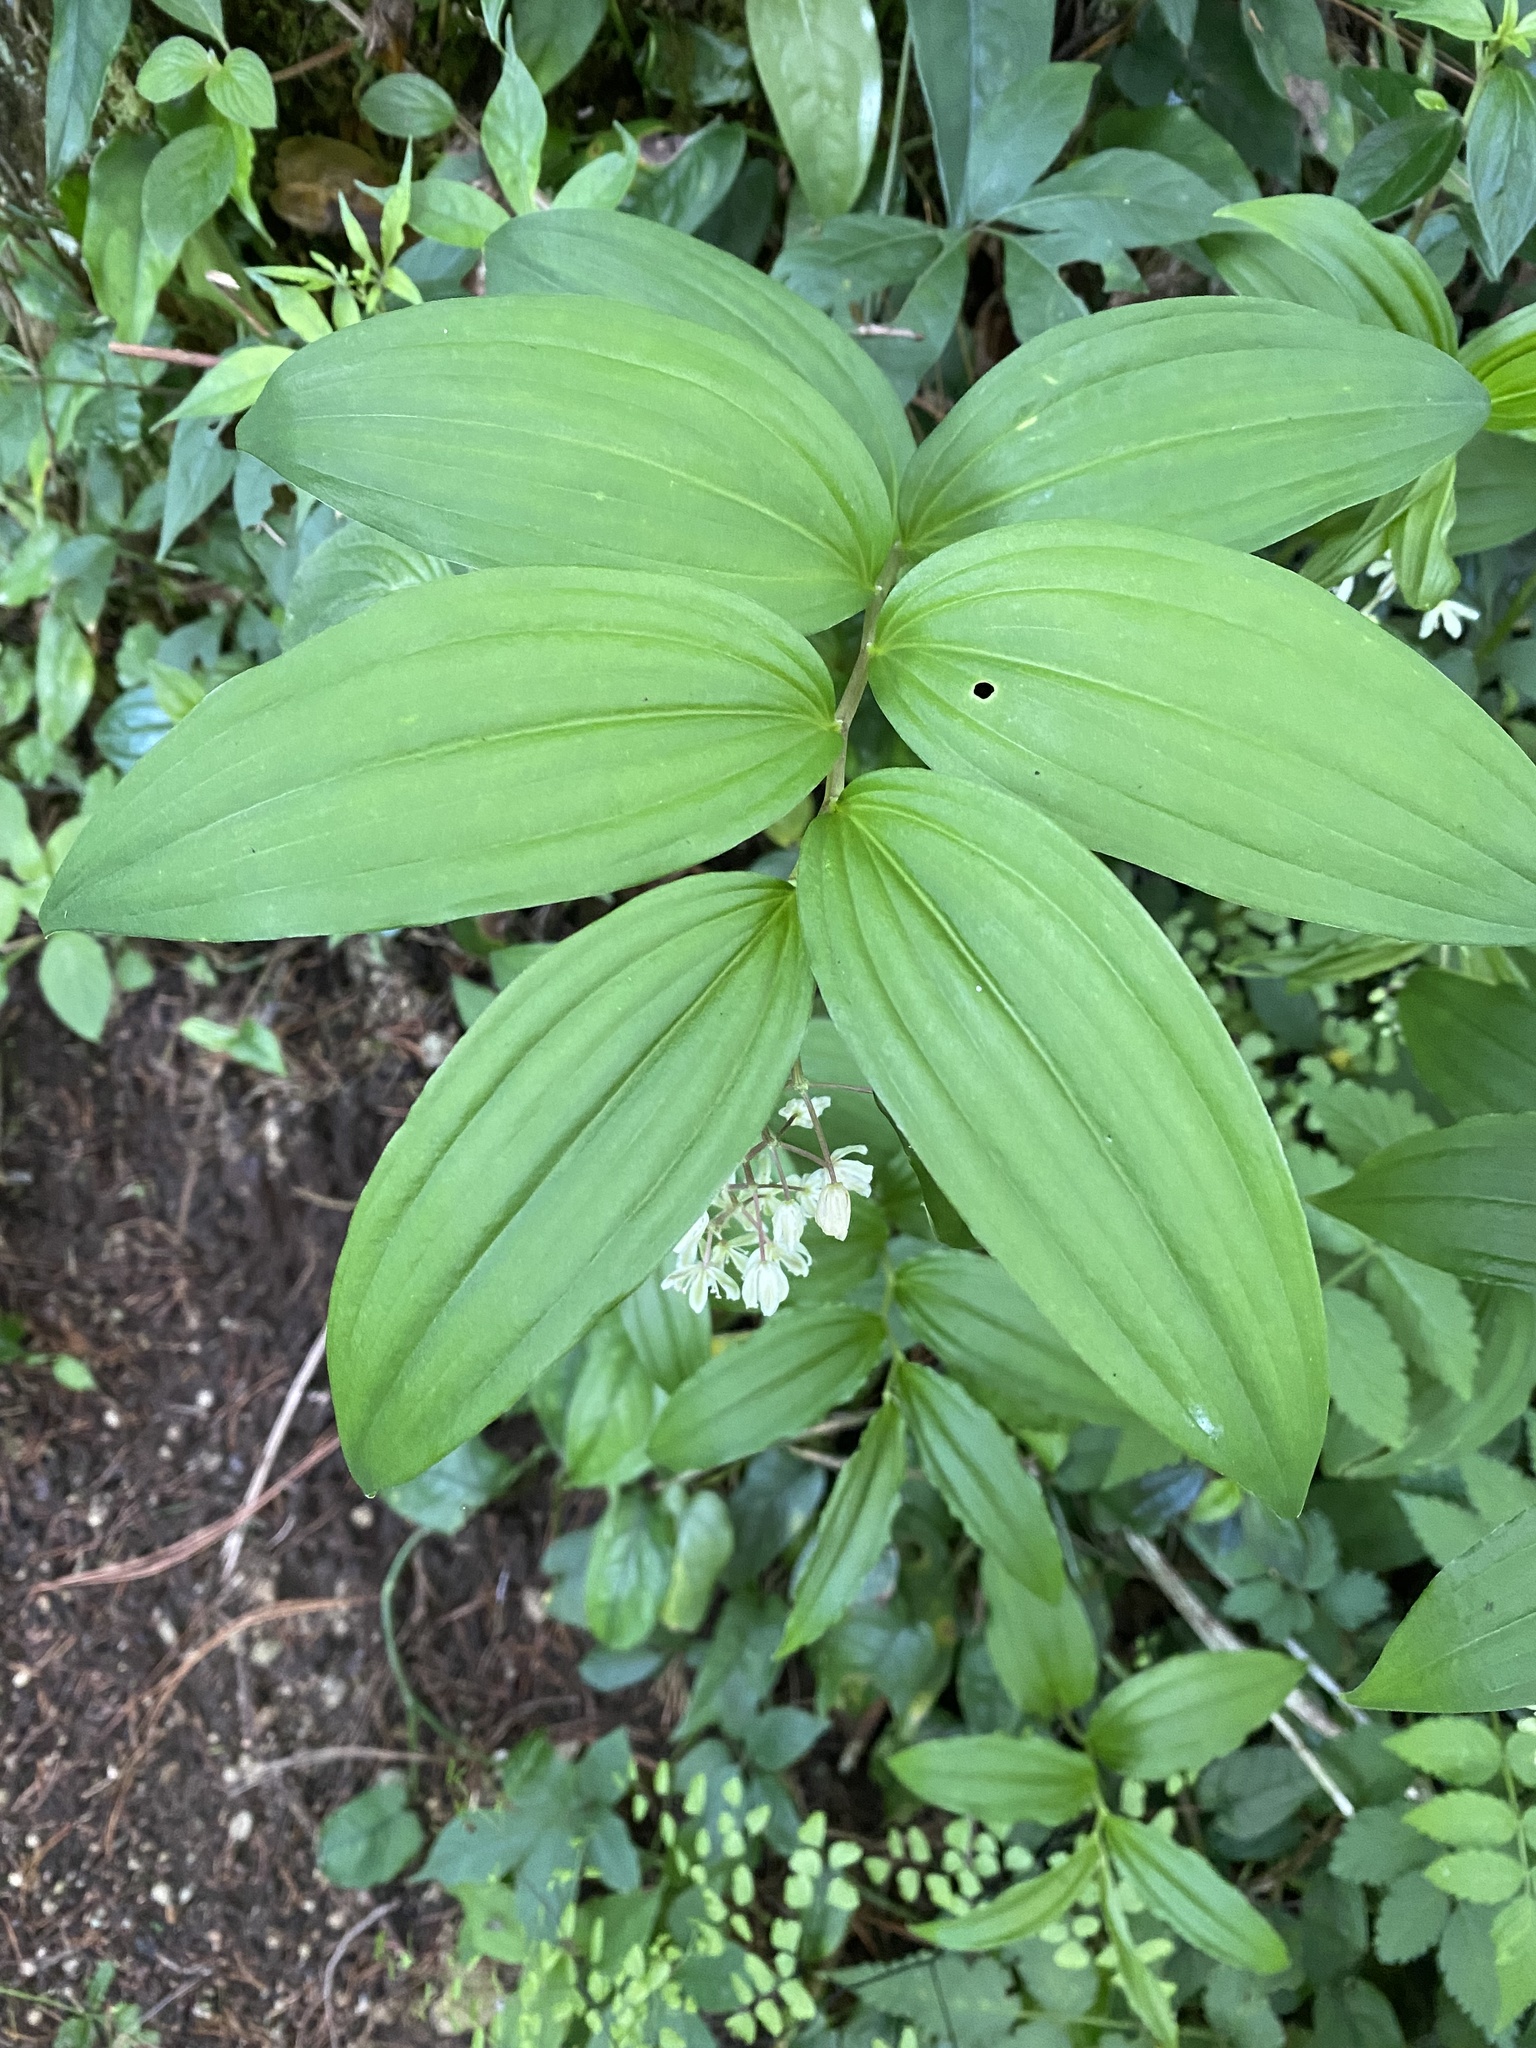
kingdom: Plantae
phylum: Tracheophyta
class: Liliopsida
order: Asparagales
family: Asparagaceae
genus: Maianthemum
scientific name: Maianthemum flexuosum
